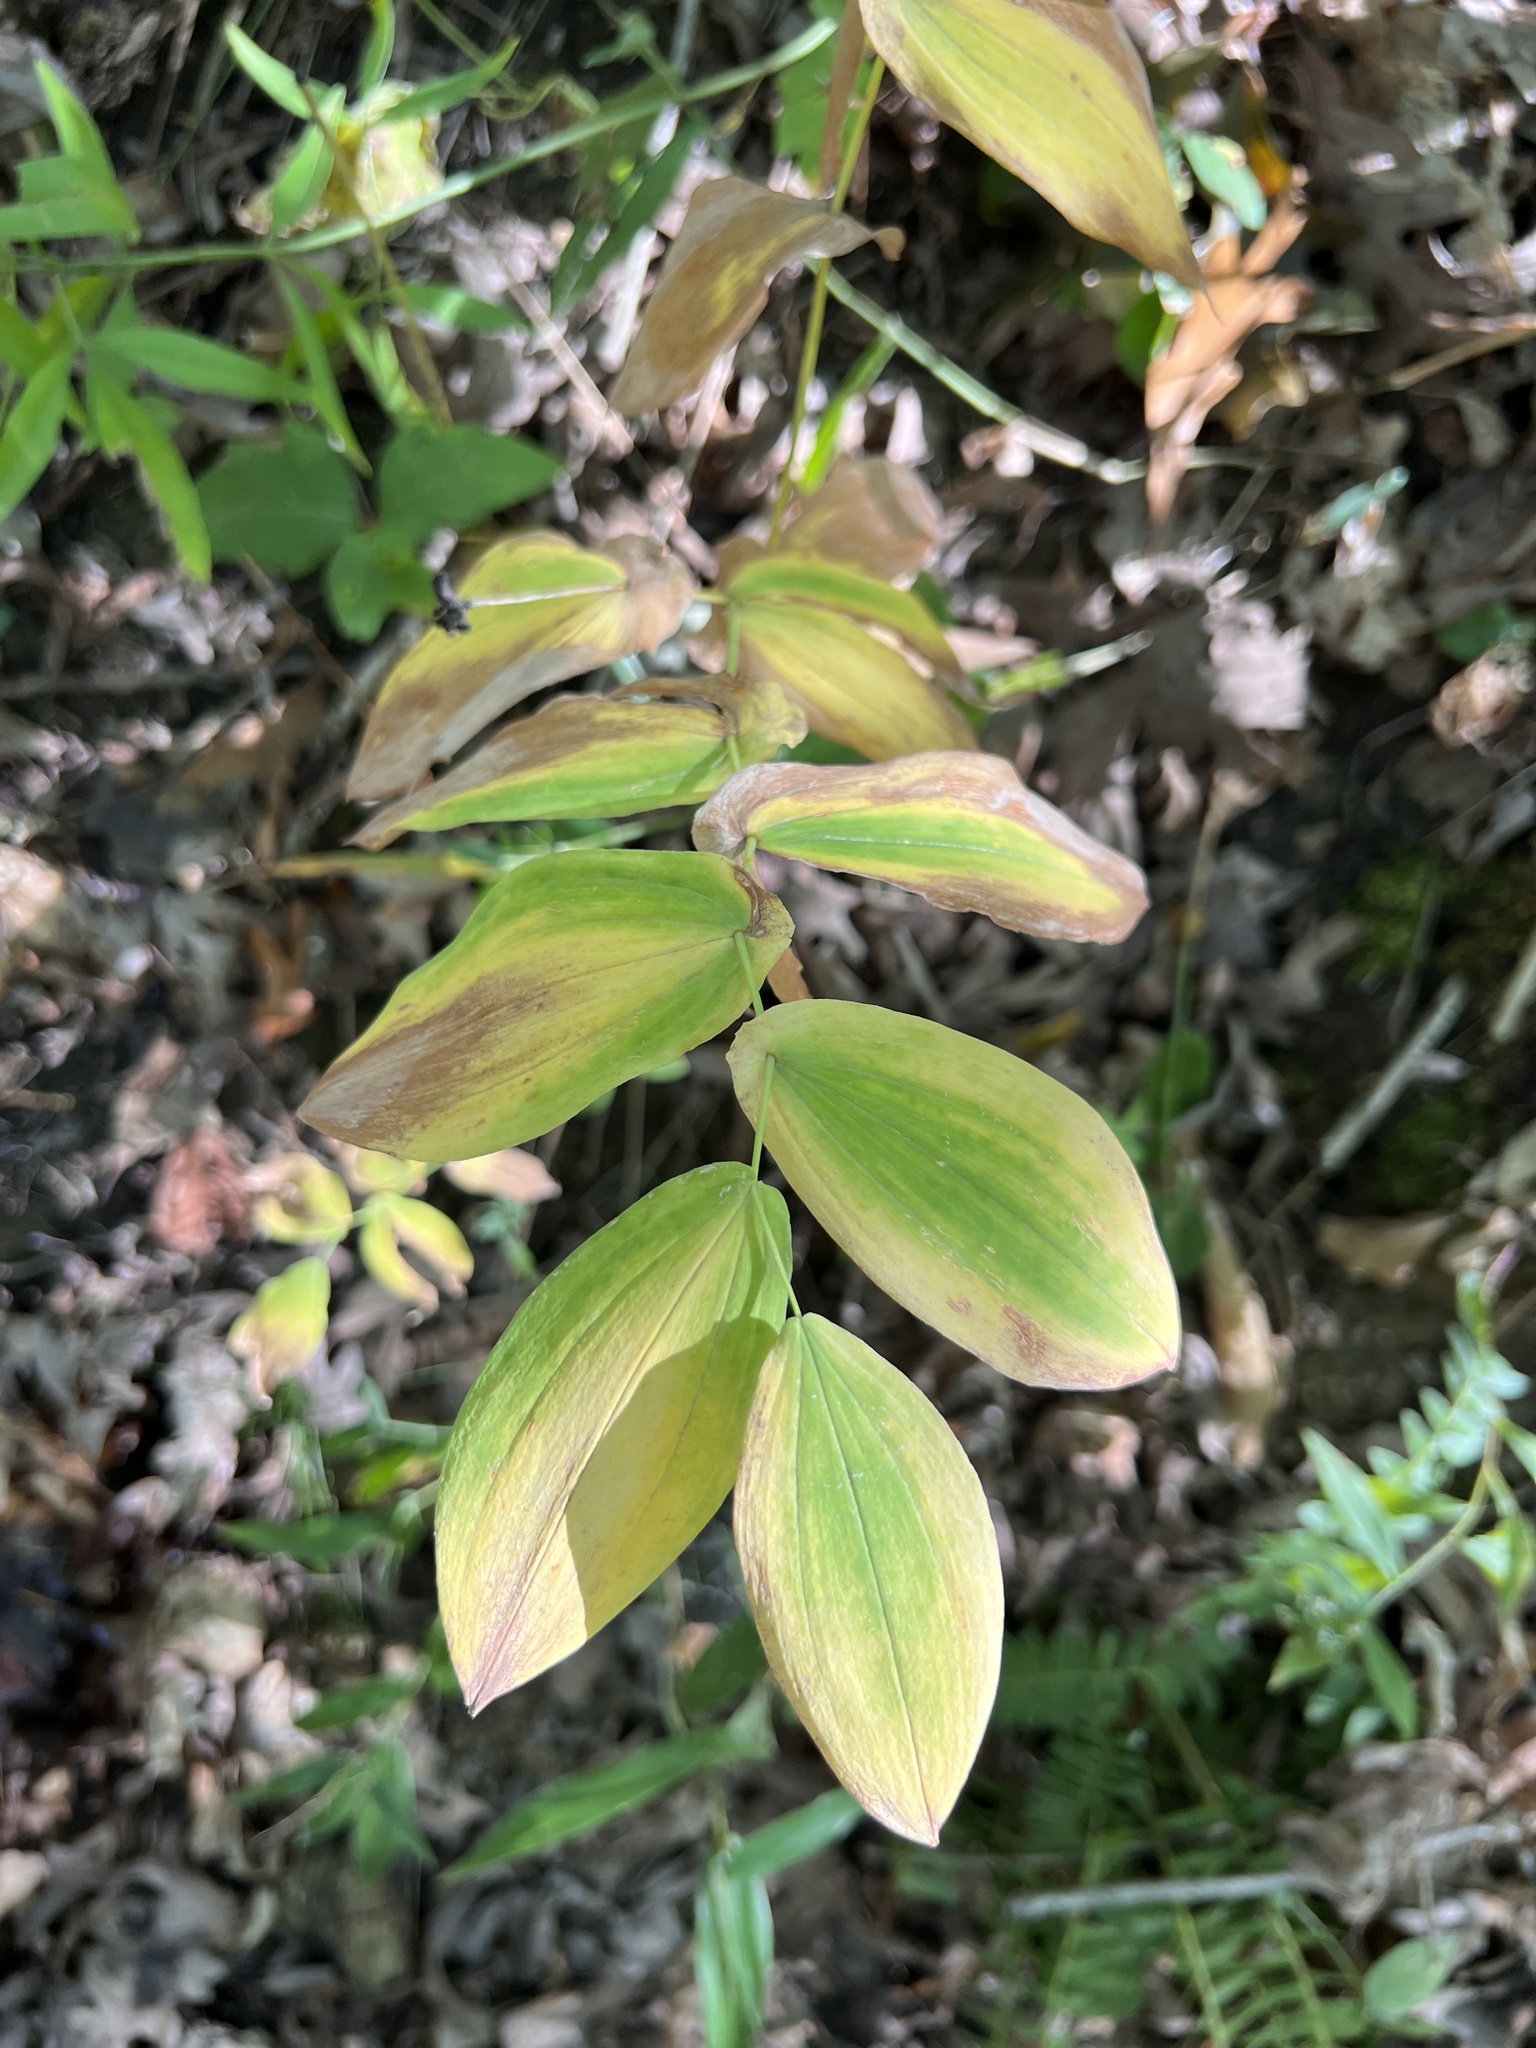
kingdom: Plantae
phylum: Tracheophyta
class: Liliopsida
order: Liliales
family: Colchicaceae
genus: Uvularia
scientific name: Uvularia grandiflora
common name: Bellwort
